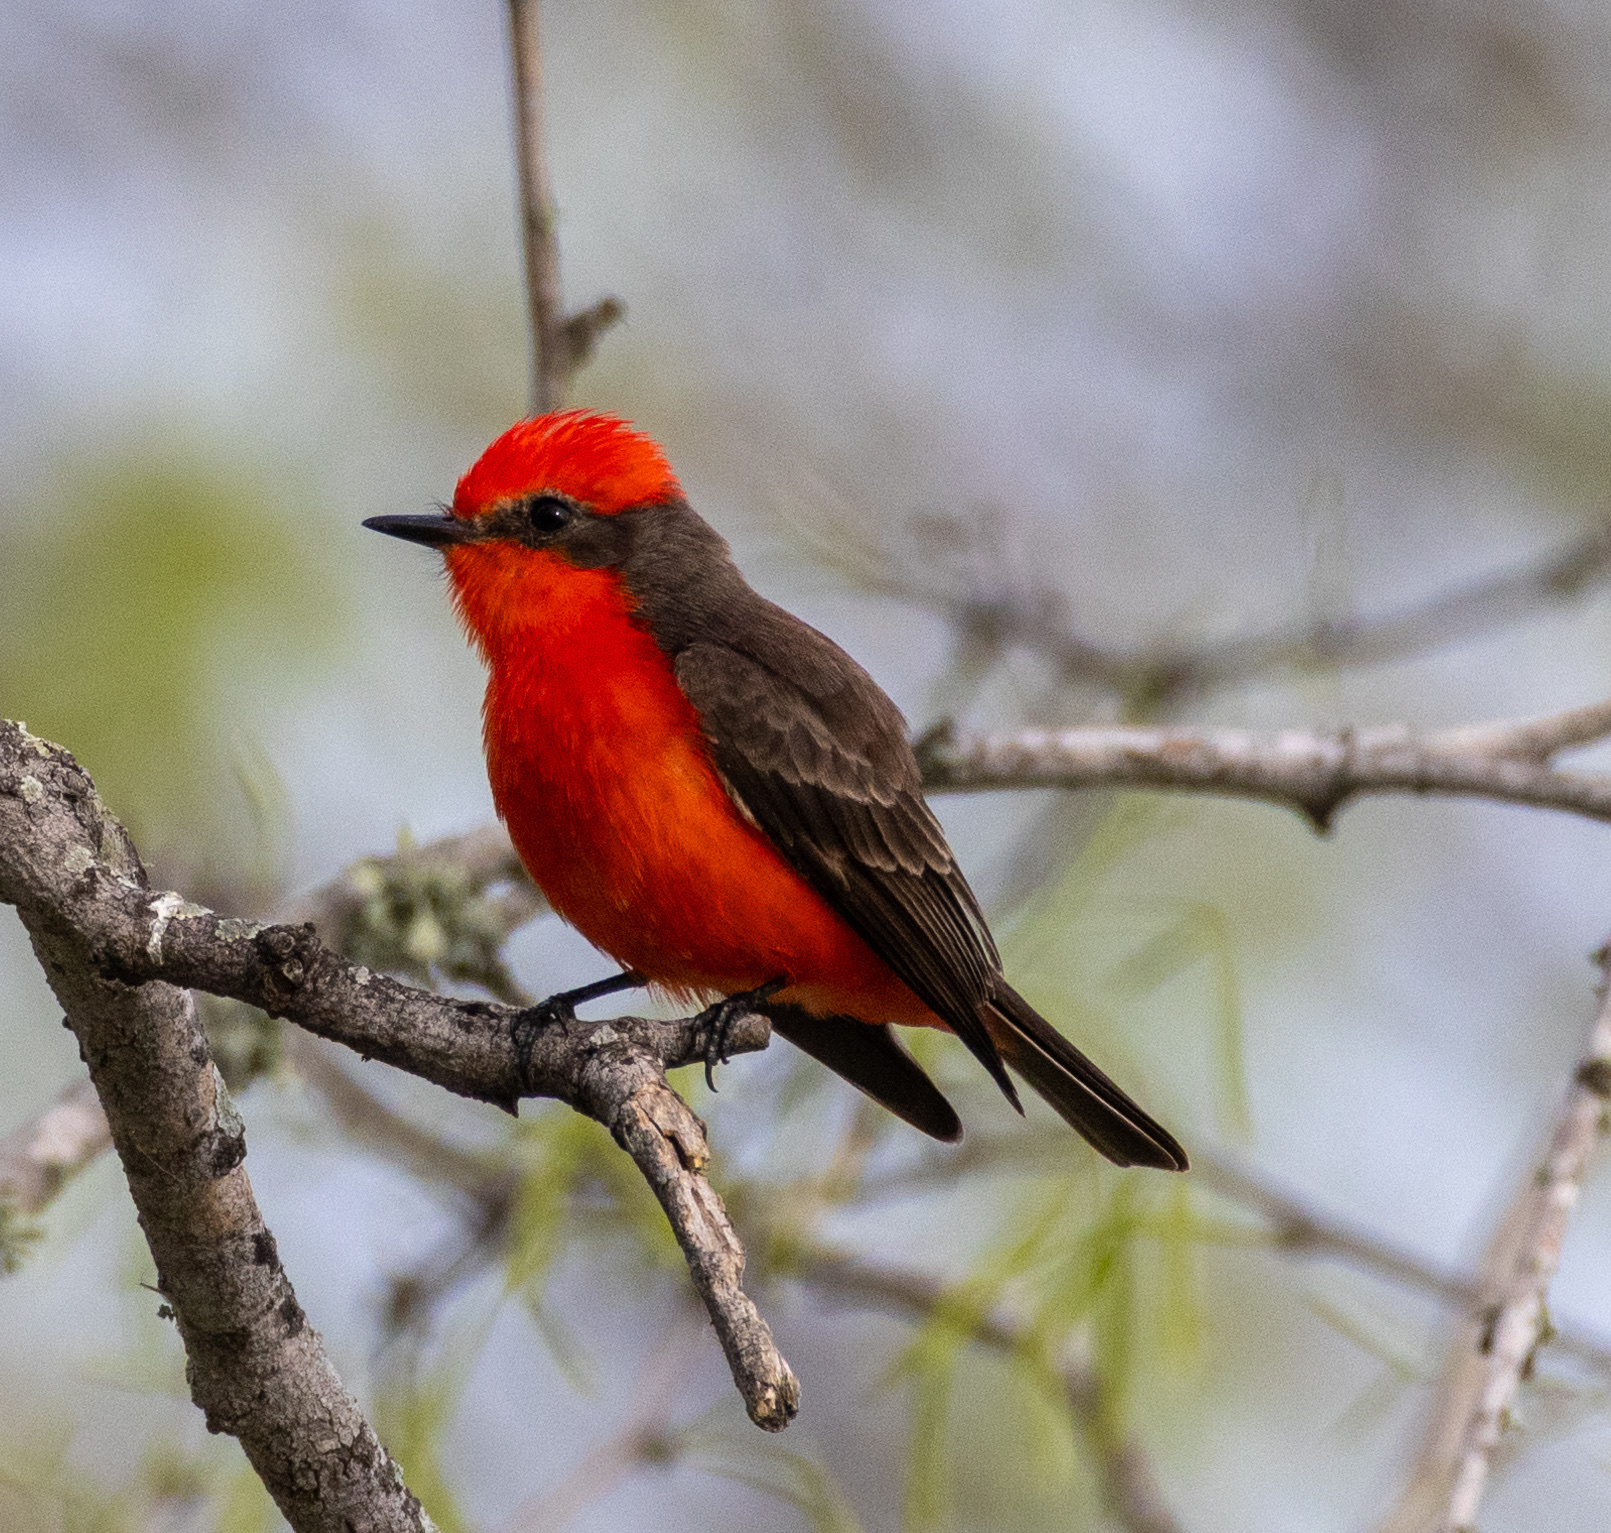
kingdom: Animalia
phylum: Chordata
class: Aves
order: Passeriformes
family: Tyrannidae
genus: Pyrocephalus
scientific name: Pyrocephalus rubinus
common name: Vermilion flycatcher
